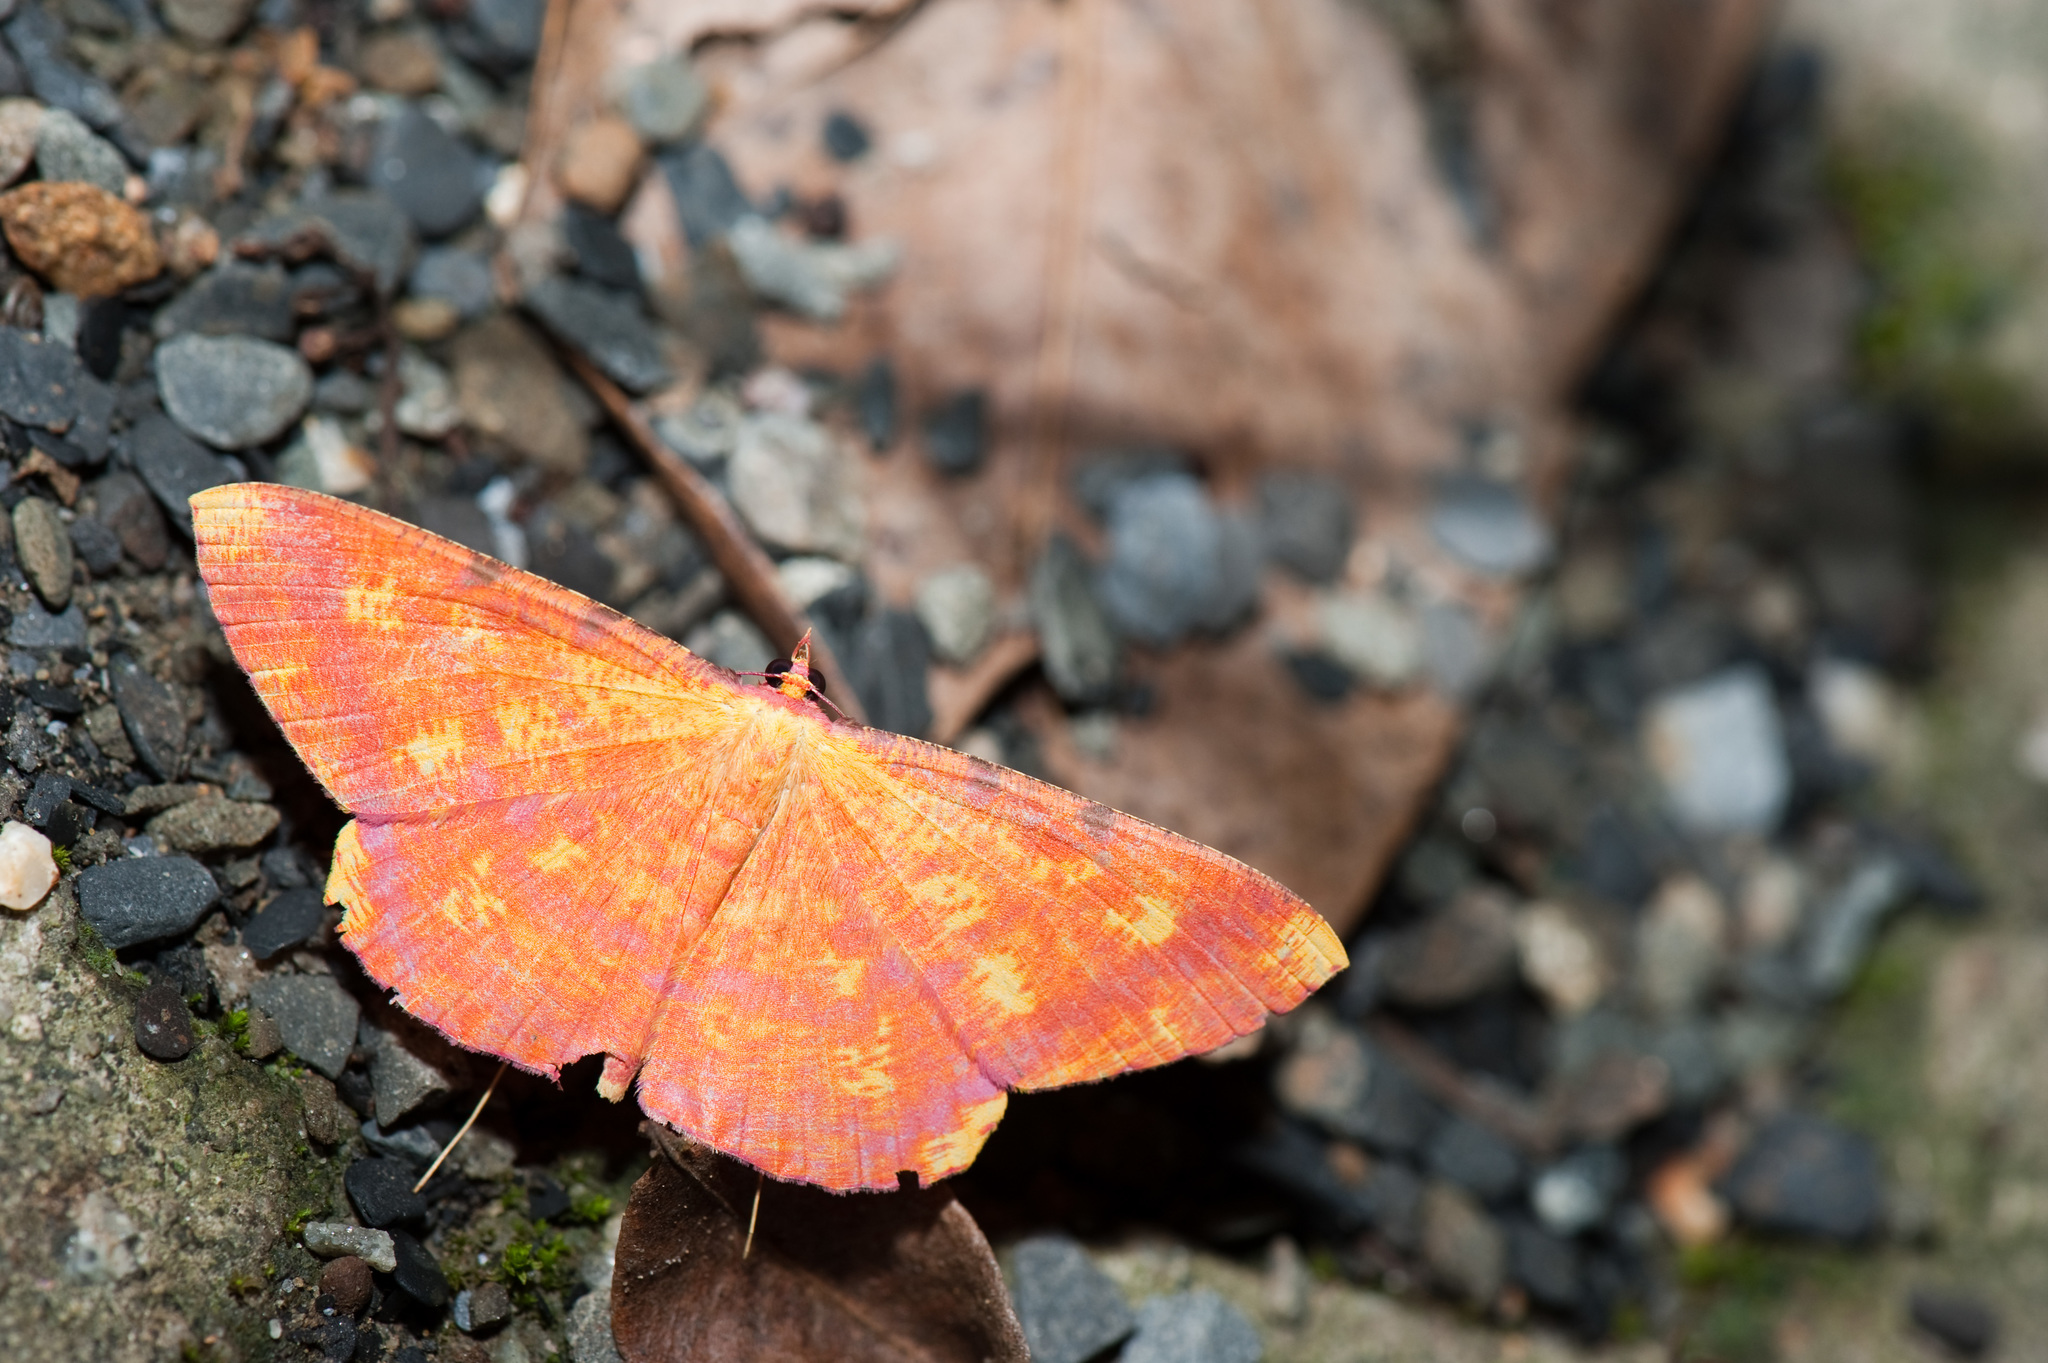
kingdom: Animalia
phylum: Arthropoda
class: Insecta
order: Lepidoptera
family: Geometridae
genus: Eumelea
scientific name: Eumelea ludovicata
